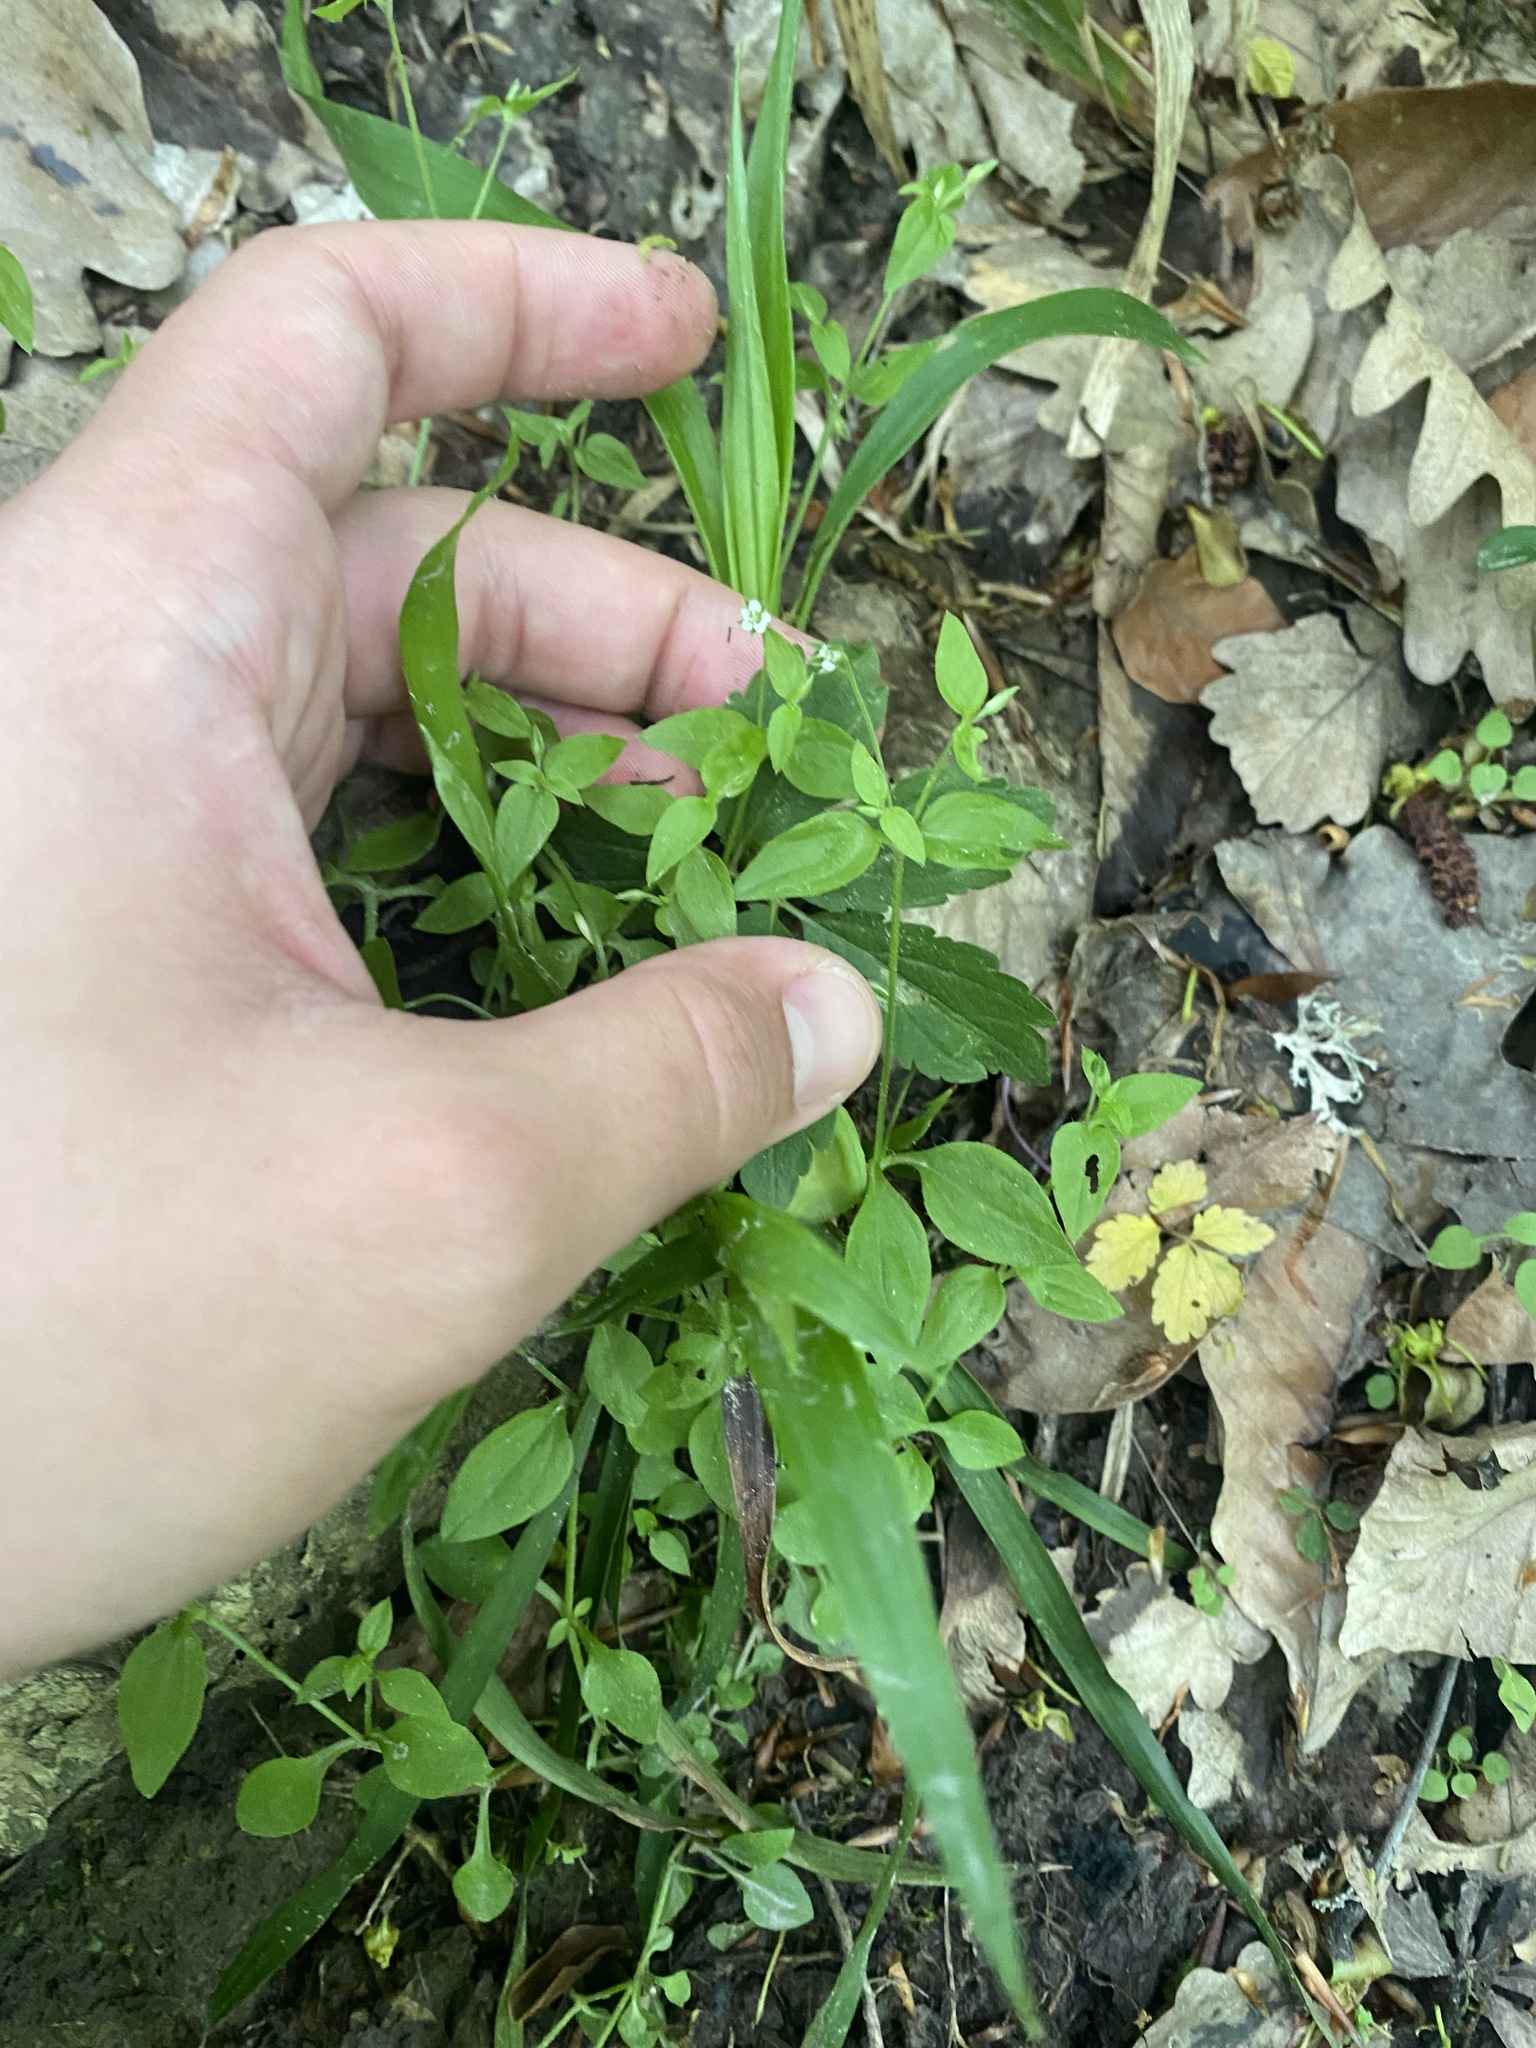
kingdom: Plantae
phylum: Tracheophyta
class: Magnoliopsida
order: Caryophyllales
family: Caryophyllaceae
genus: Moehringia
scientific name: Moehringia trinervia
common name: Three-nerved sandwort
